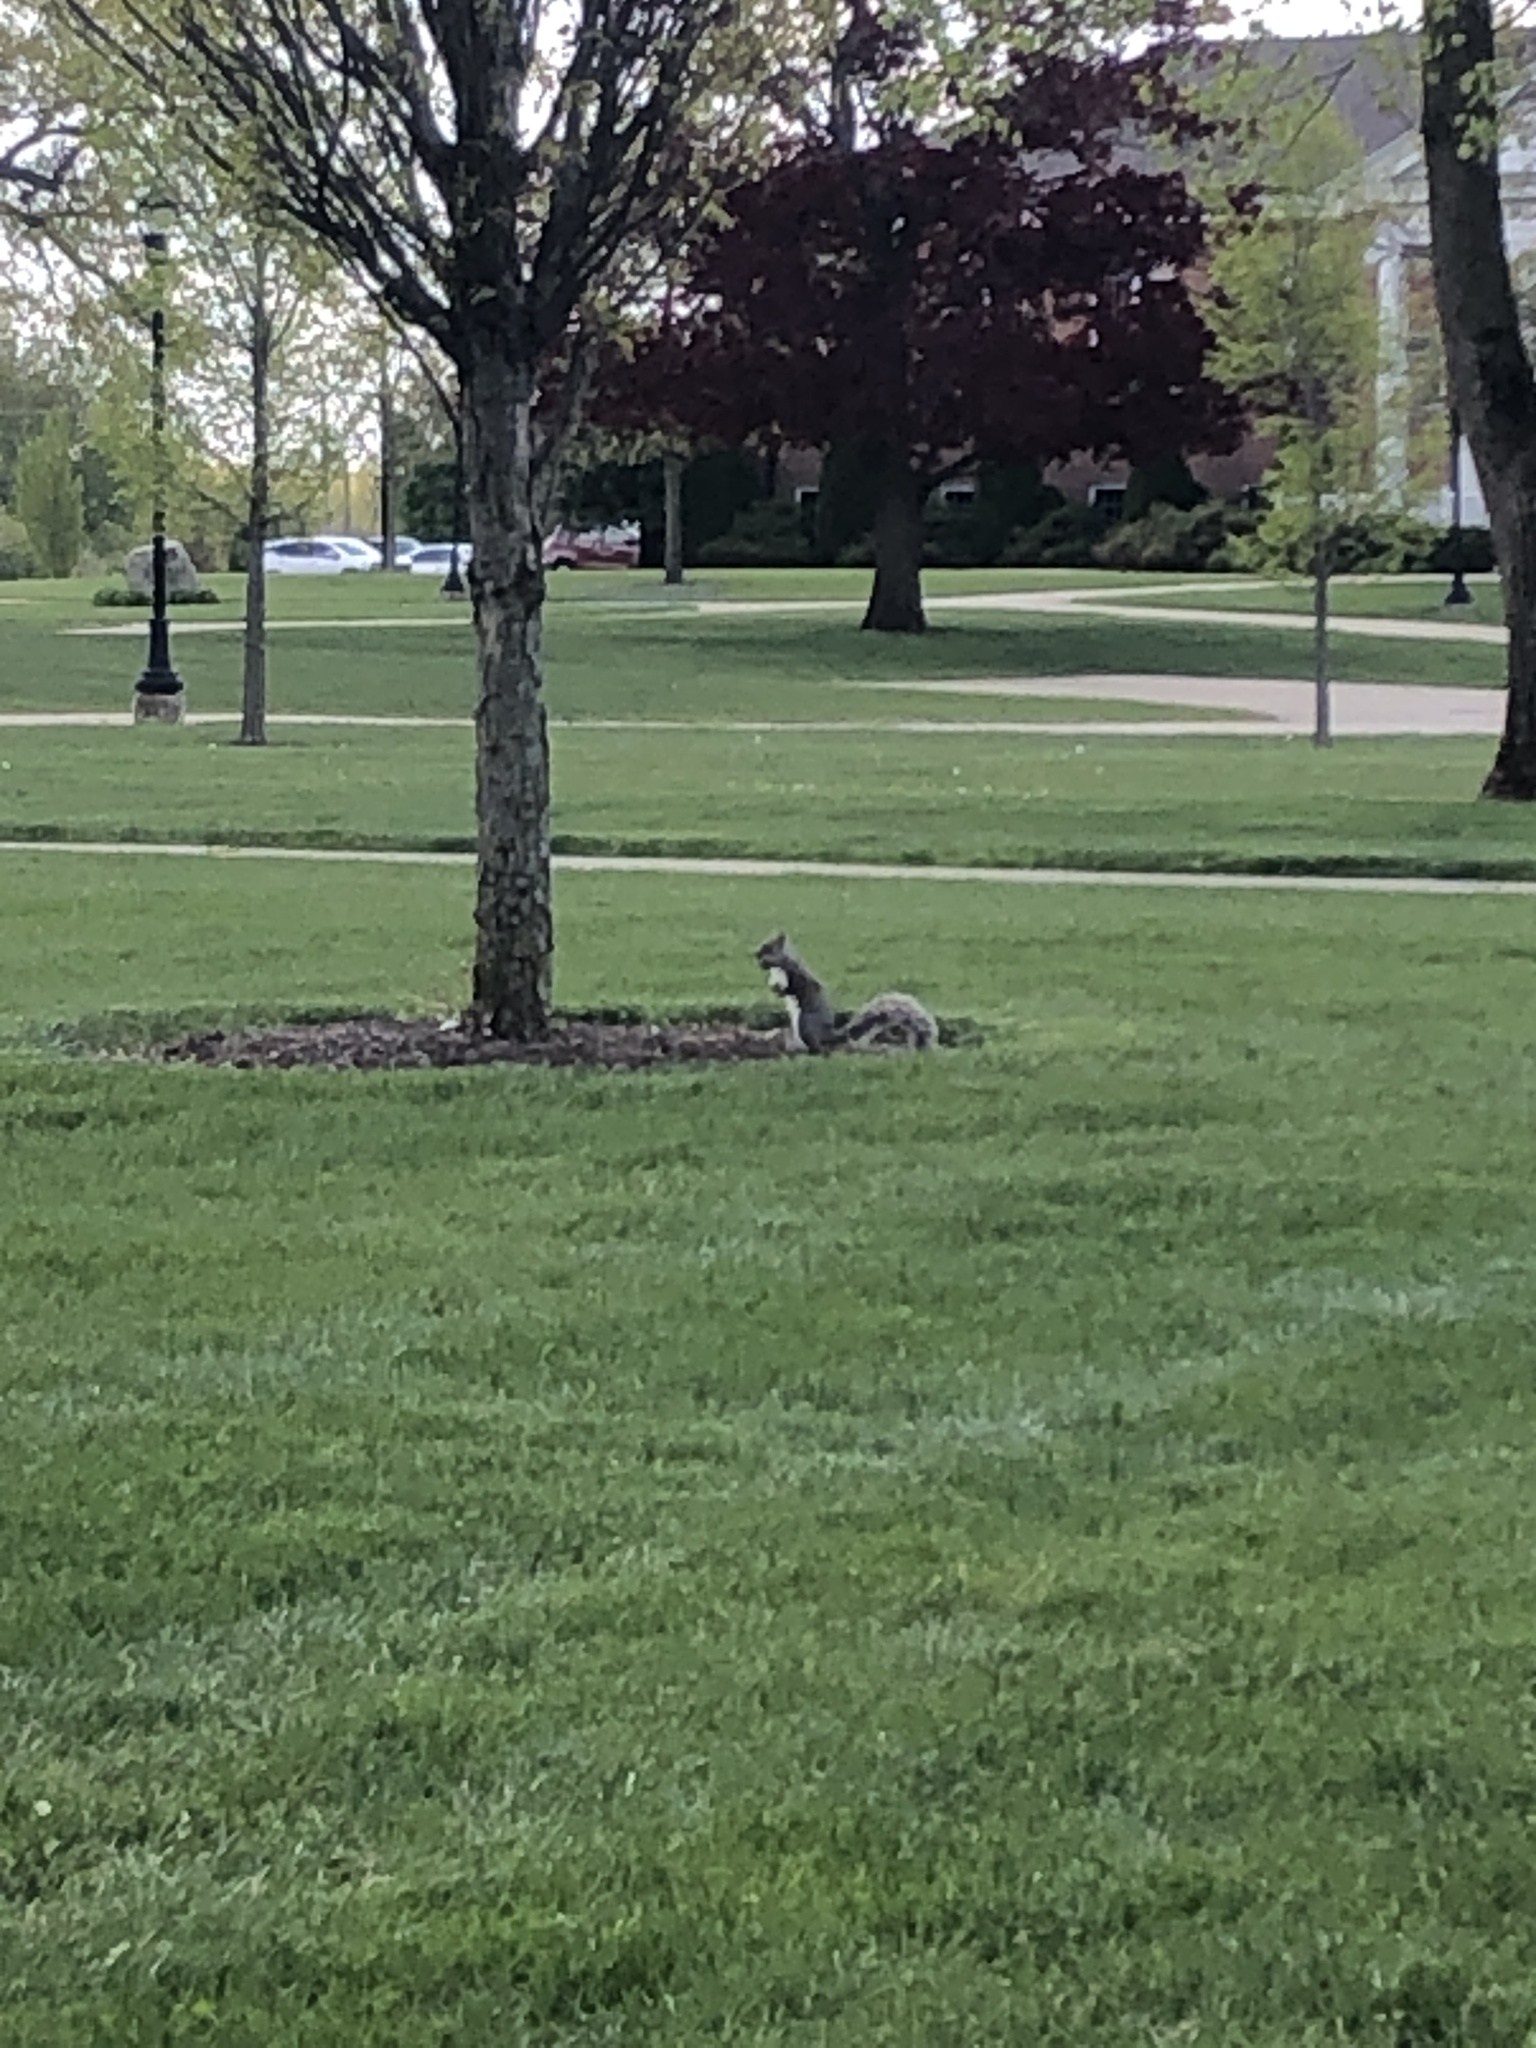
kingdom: Animalia
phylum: Chordata
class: Mammalia
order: Rodentia
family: Sciuridae
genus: Sciurus
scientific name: Sciurus carolinensis
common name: Eastern gray squirrel
